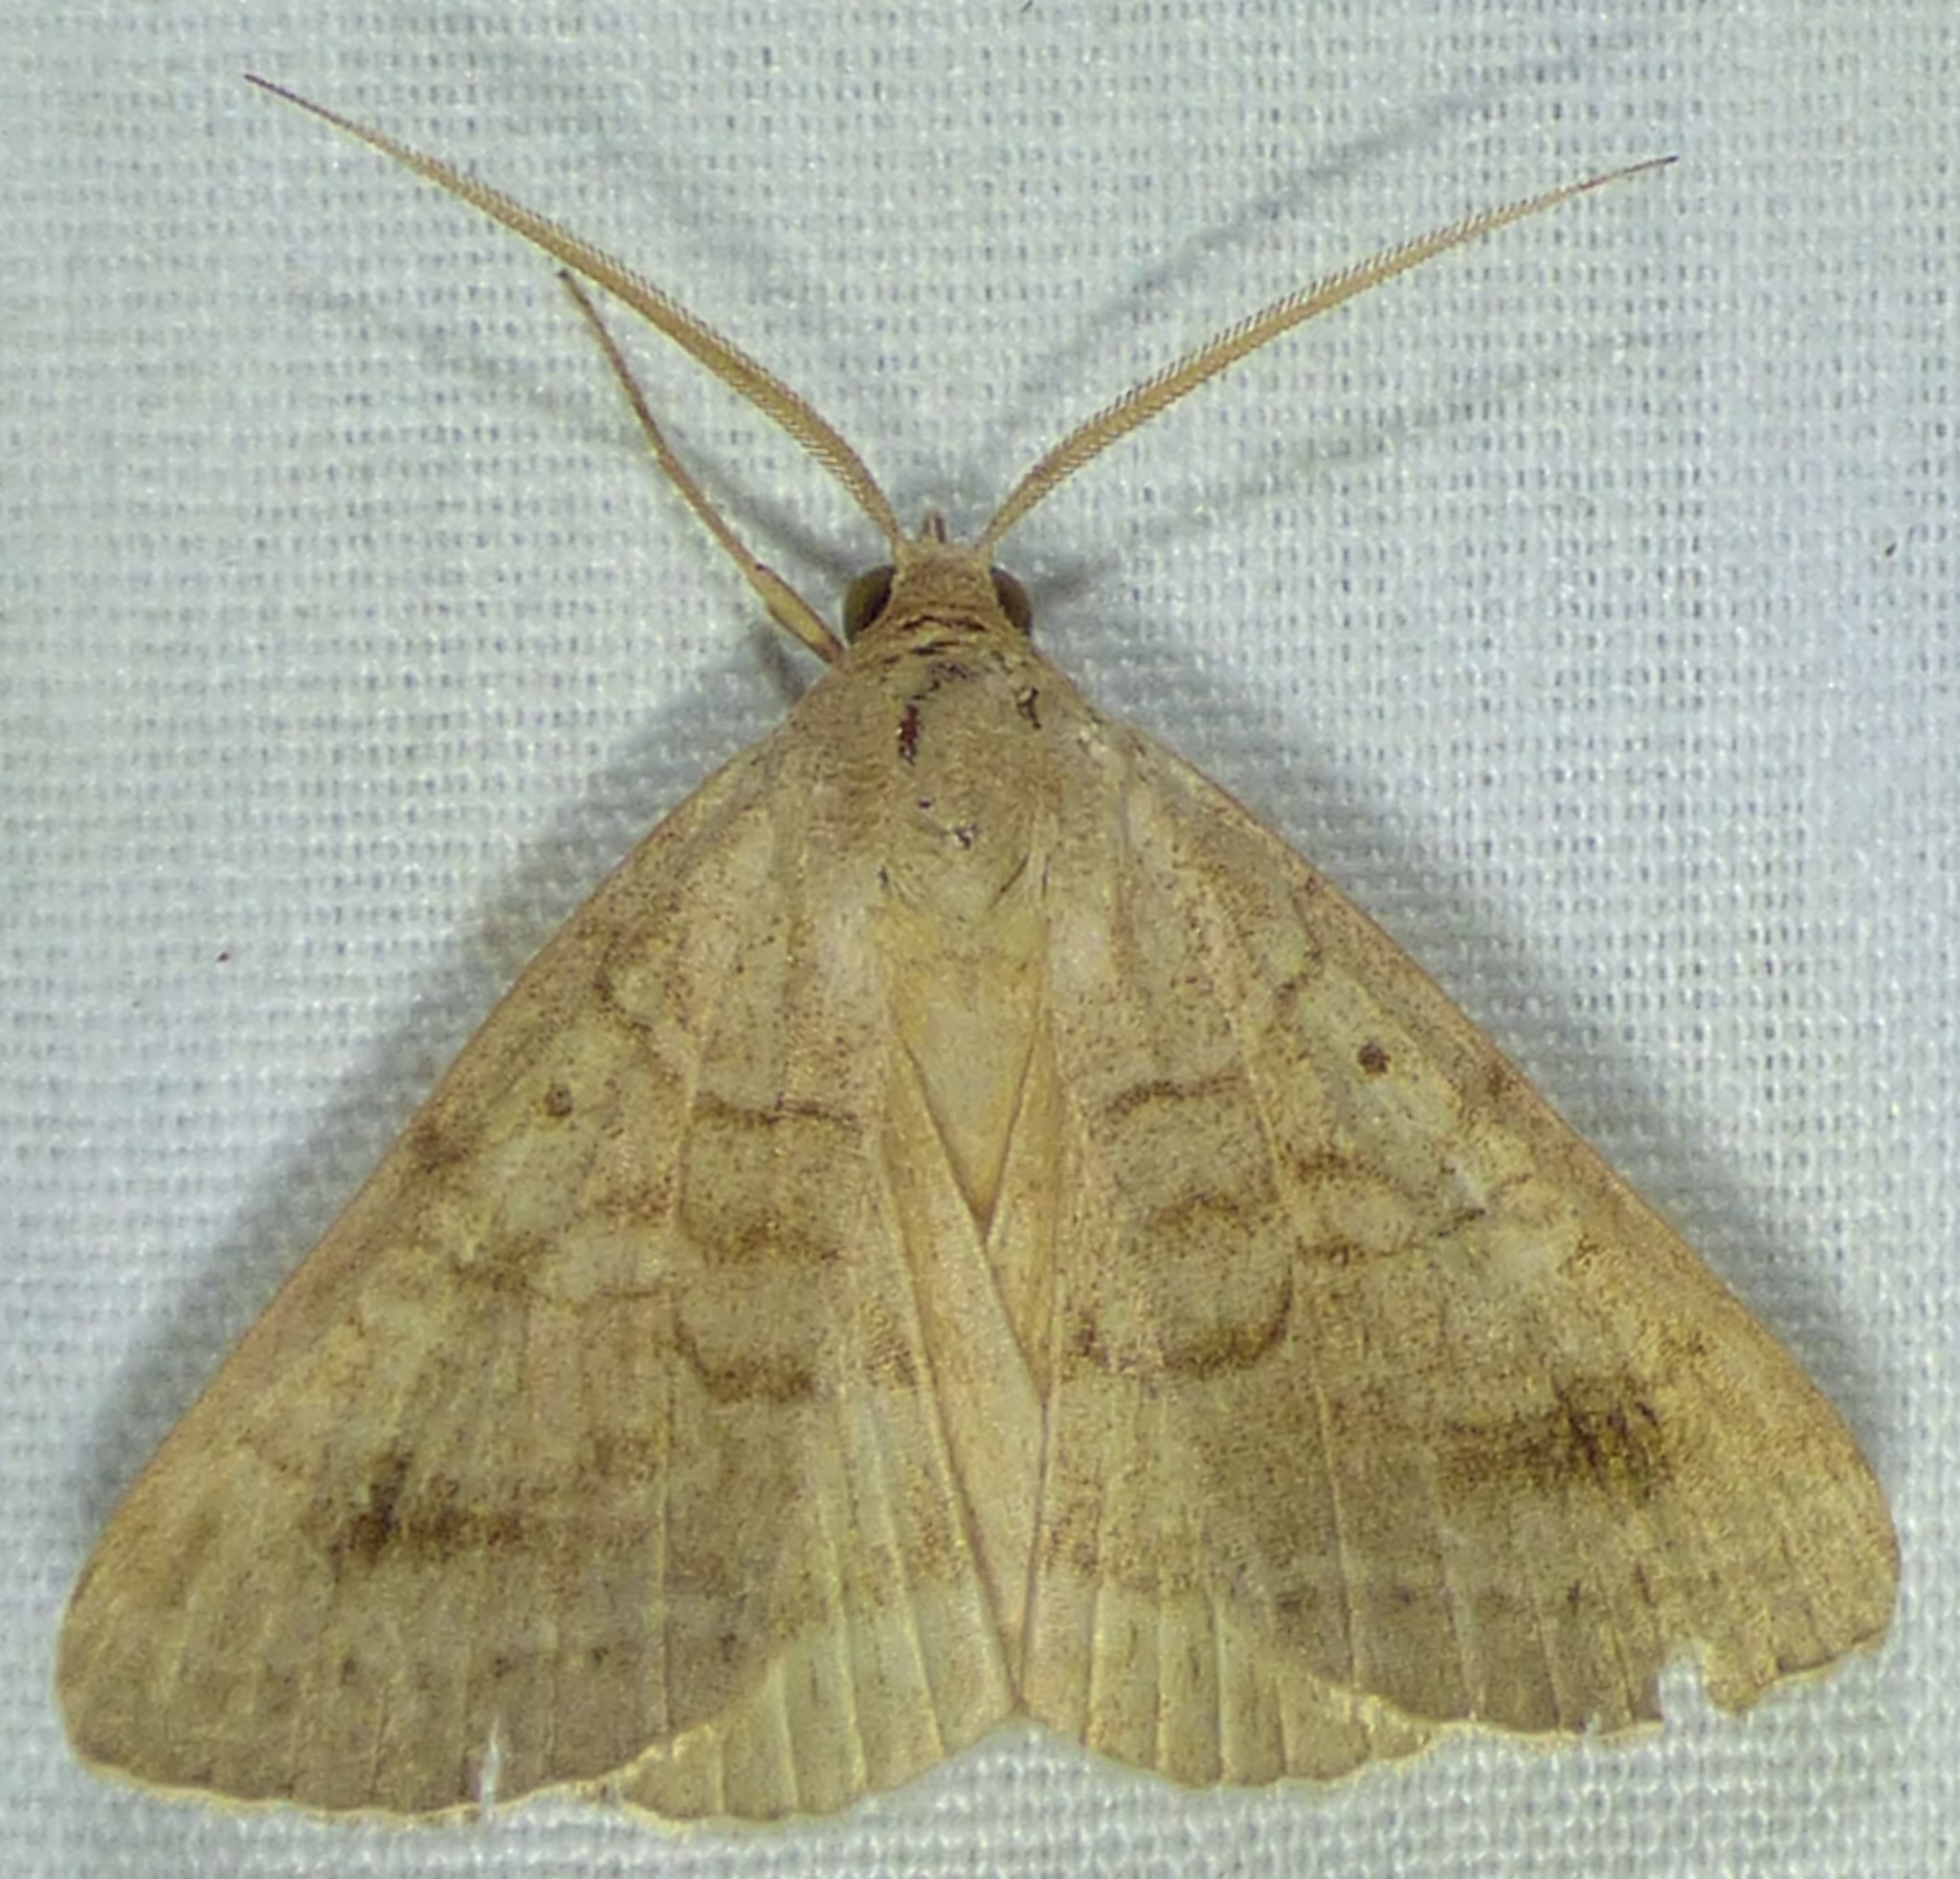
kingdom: Animalia
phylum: Arthropoda
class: Insecta
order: Lepidoptera
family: Erebidae
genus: Caenurgia
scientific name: Caenurgia chloropha
